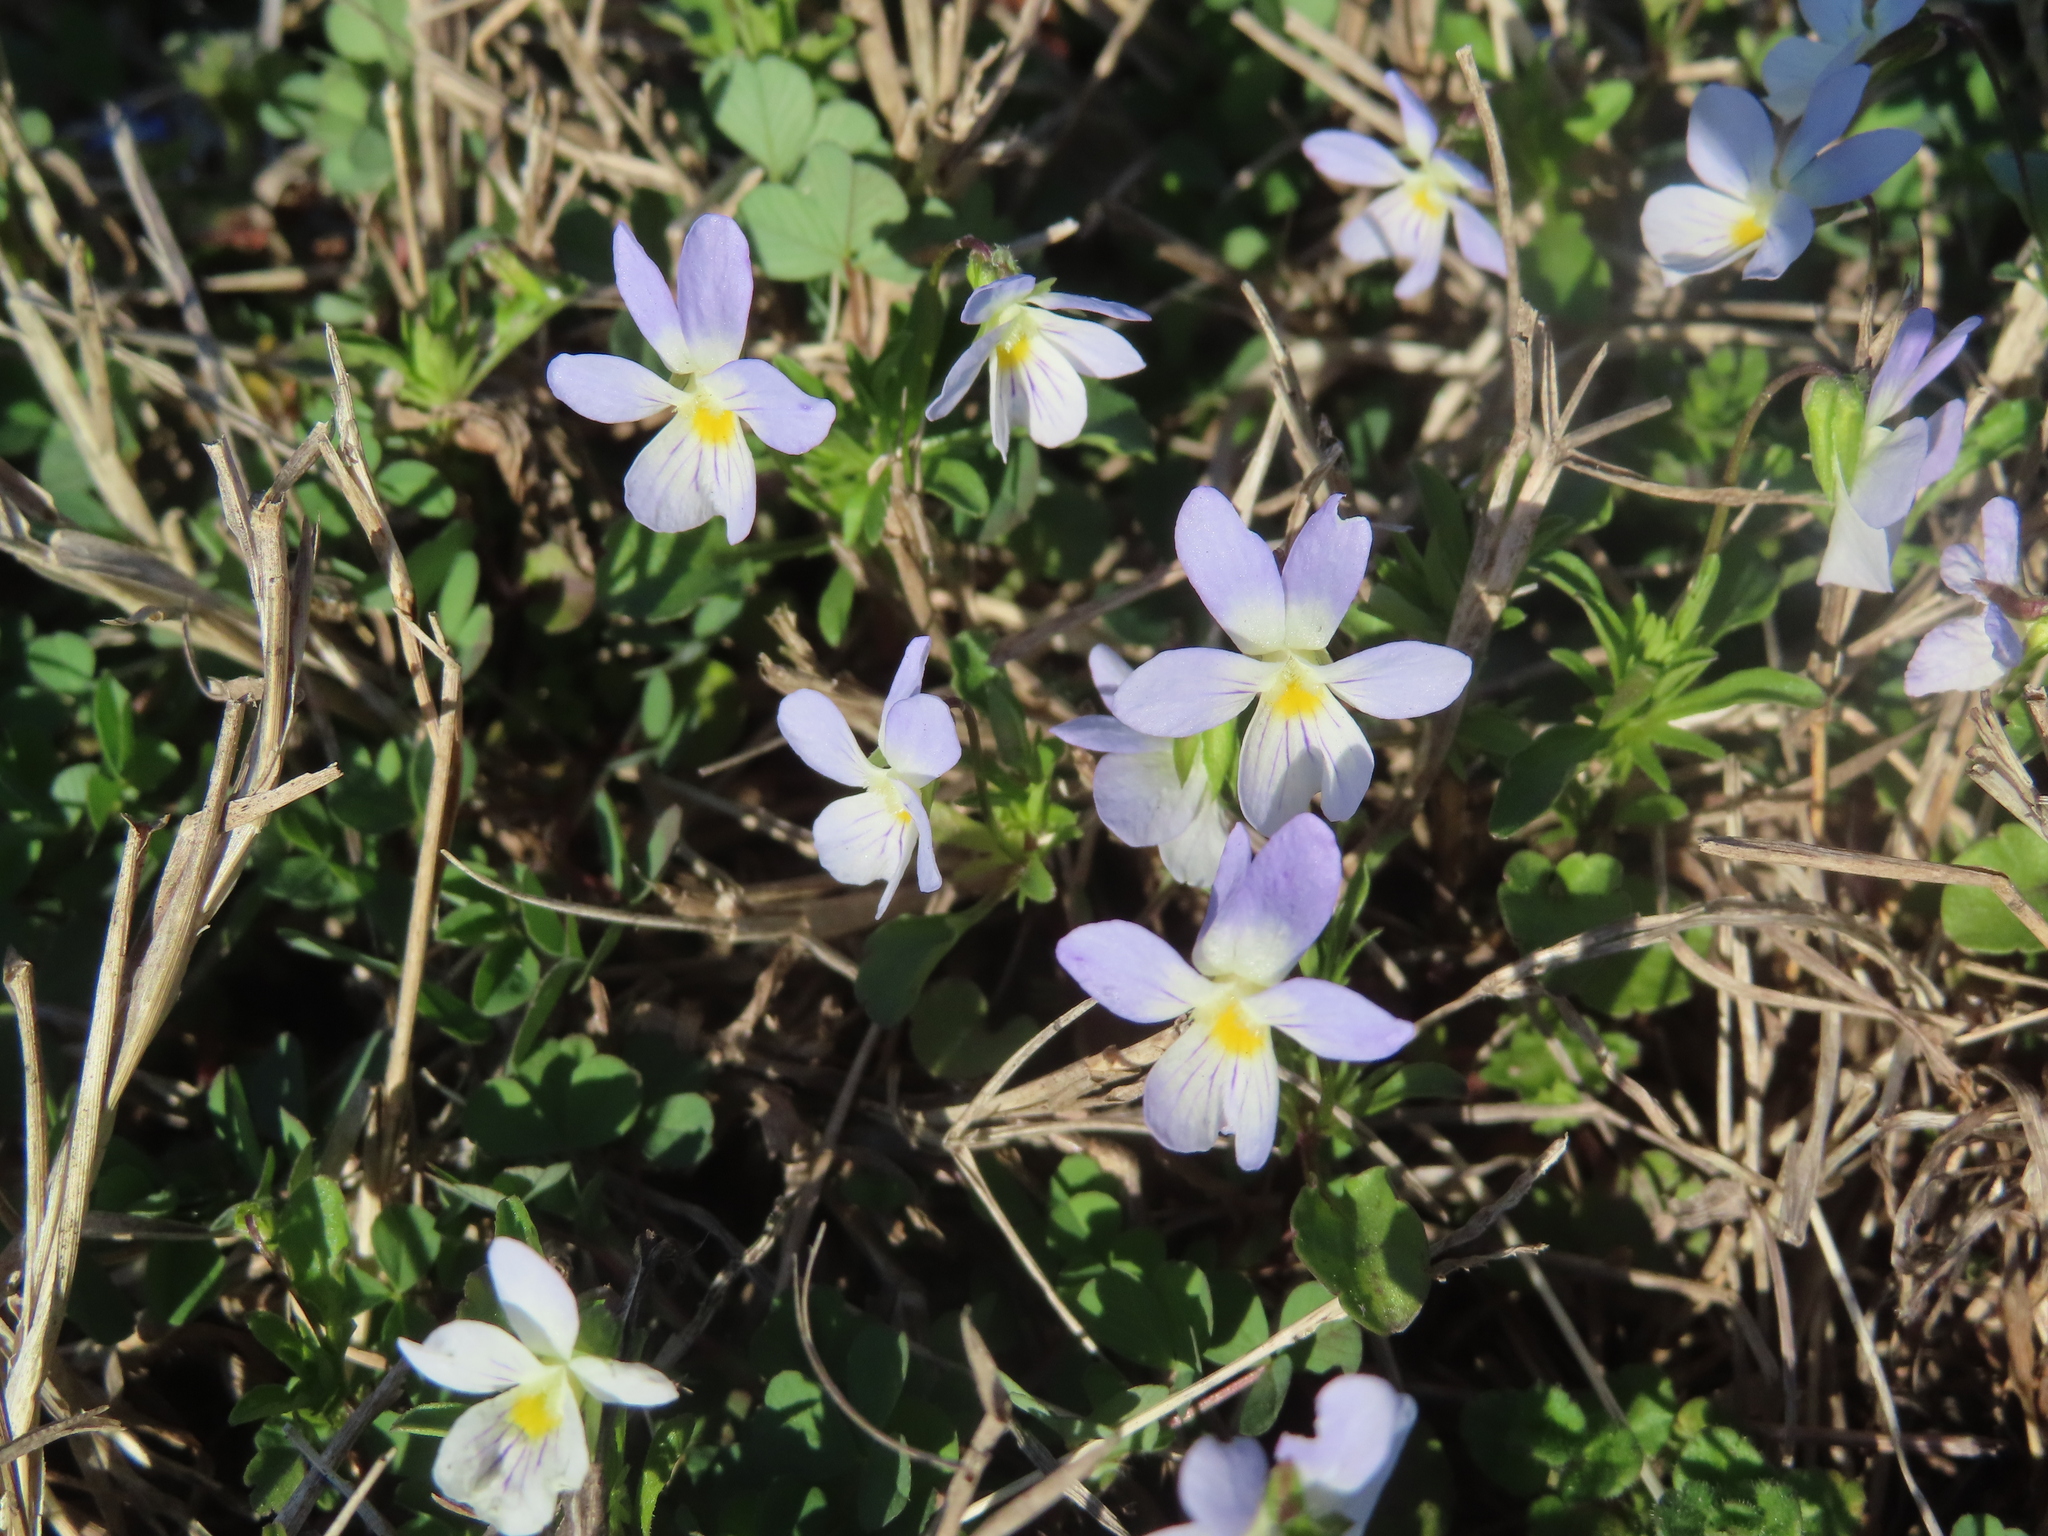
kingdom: Plantae
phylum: Tracheophyta
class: Magnoliopsida
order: Malpighiales
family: Violaceae
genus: Viola
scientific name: Viola rafinesquei
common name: American field pansy
